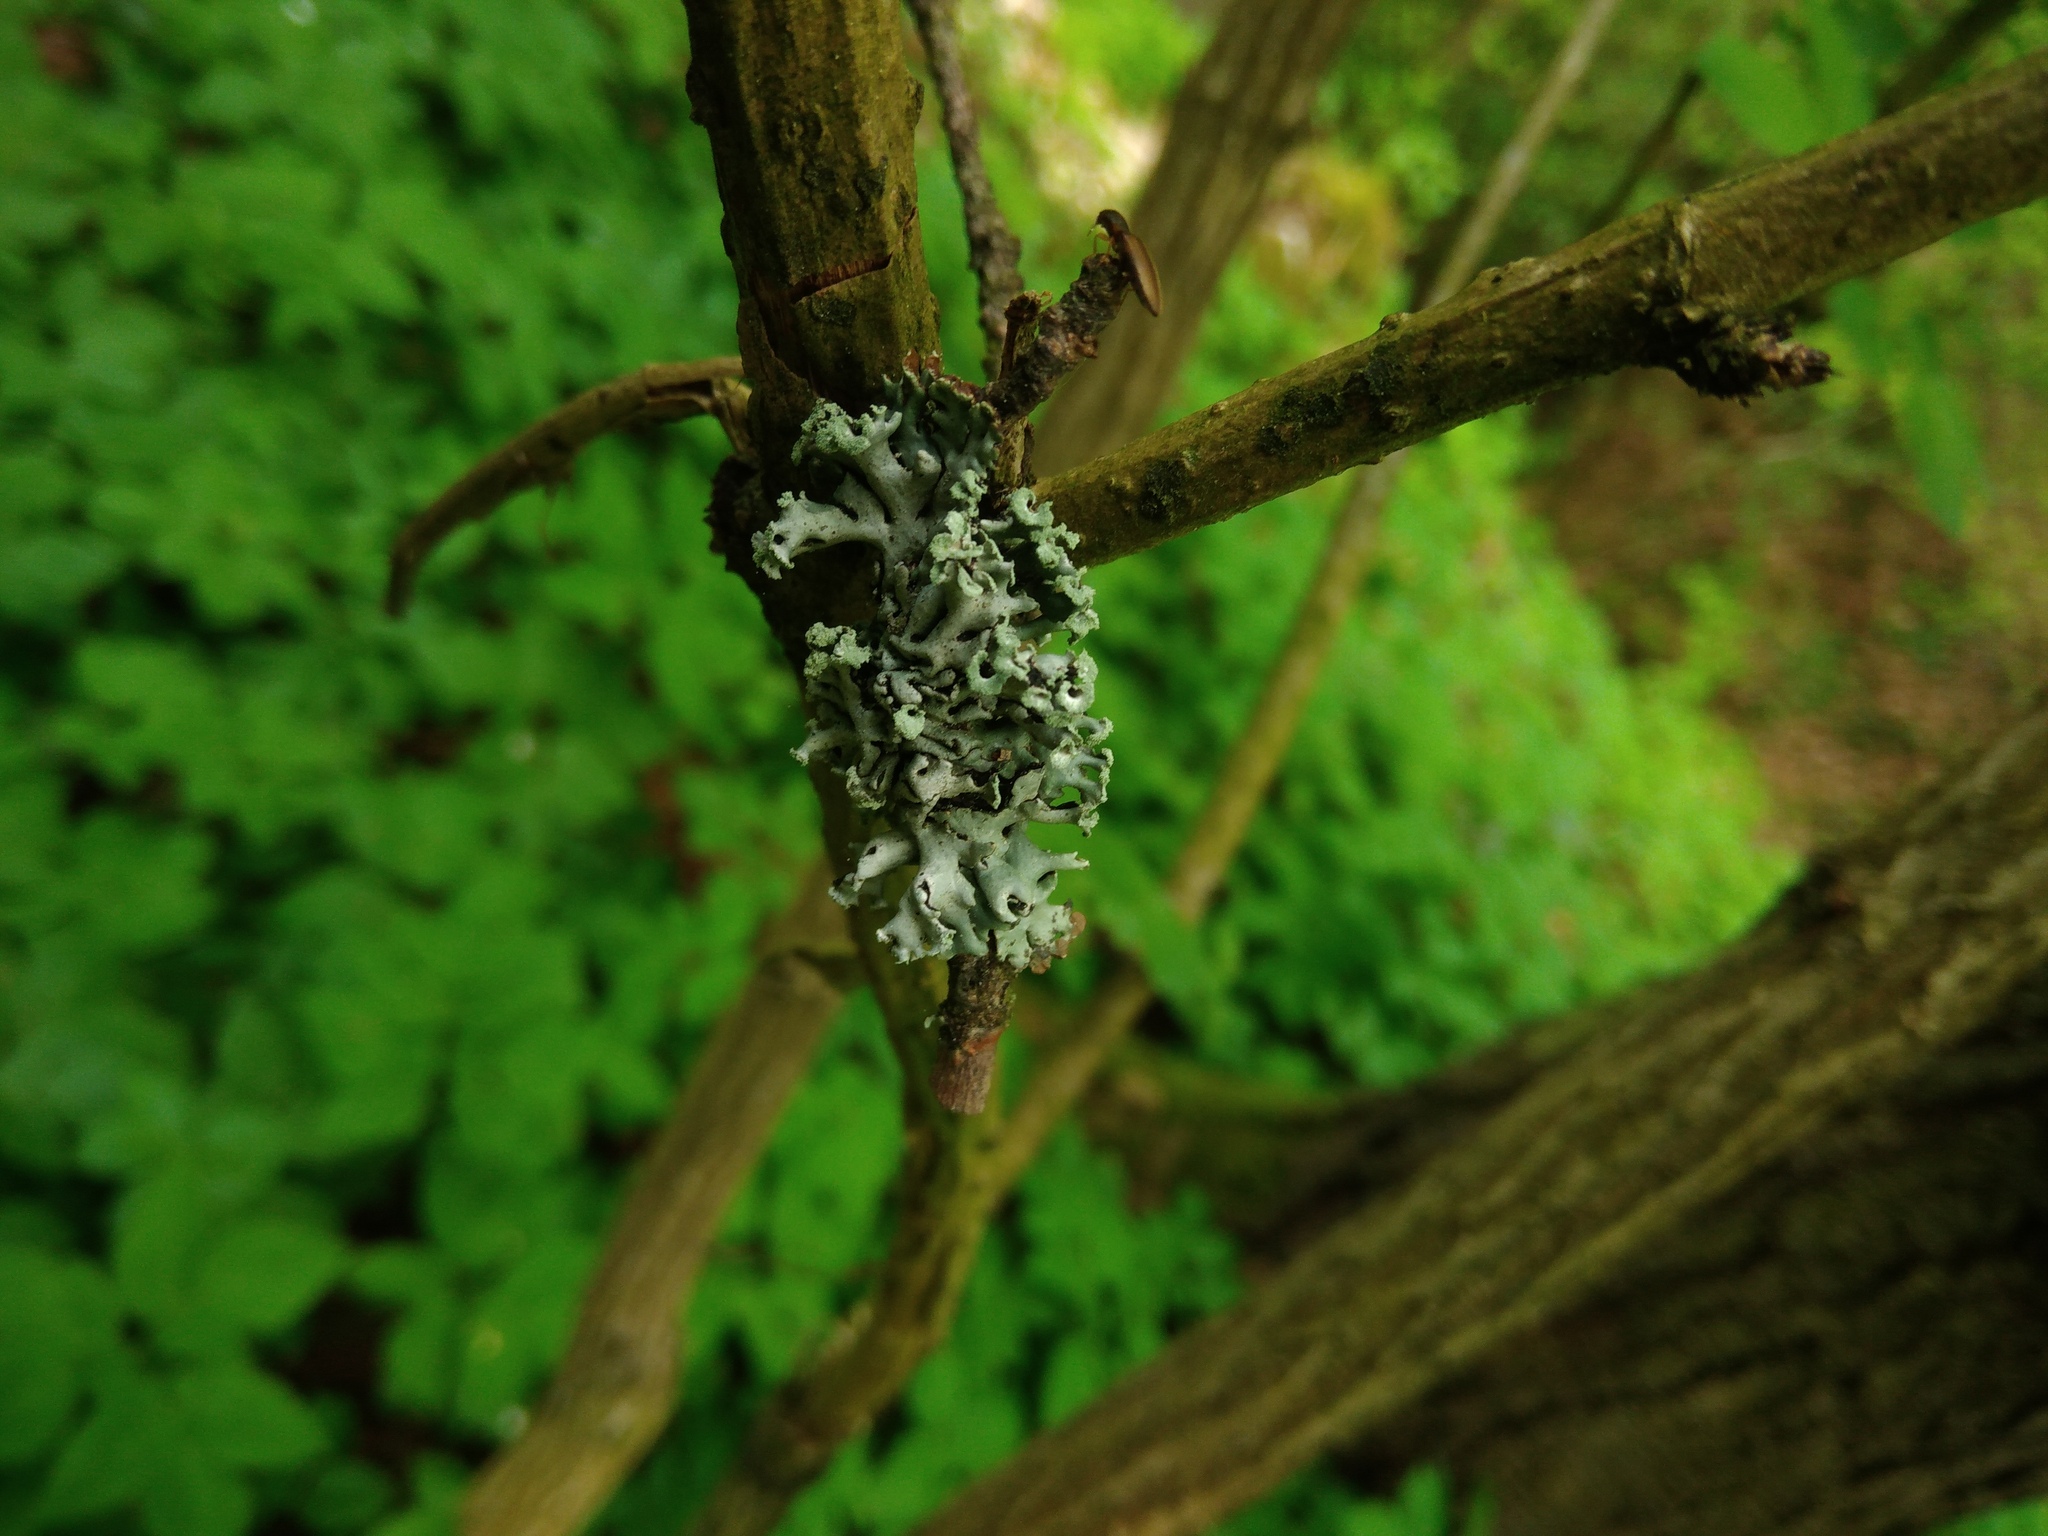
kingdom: Fungi
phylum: Ascomycota
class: Lecanoromycetes
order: Lecanorales
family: Parmeliaceae
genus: Hypogymnia
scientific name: Hypogymnia physodes
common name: Dark crottle
